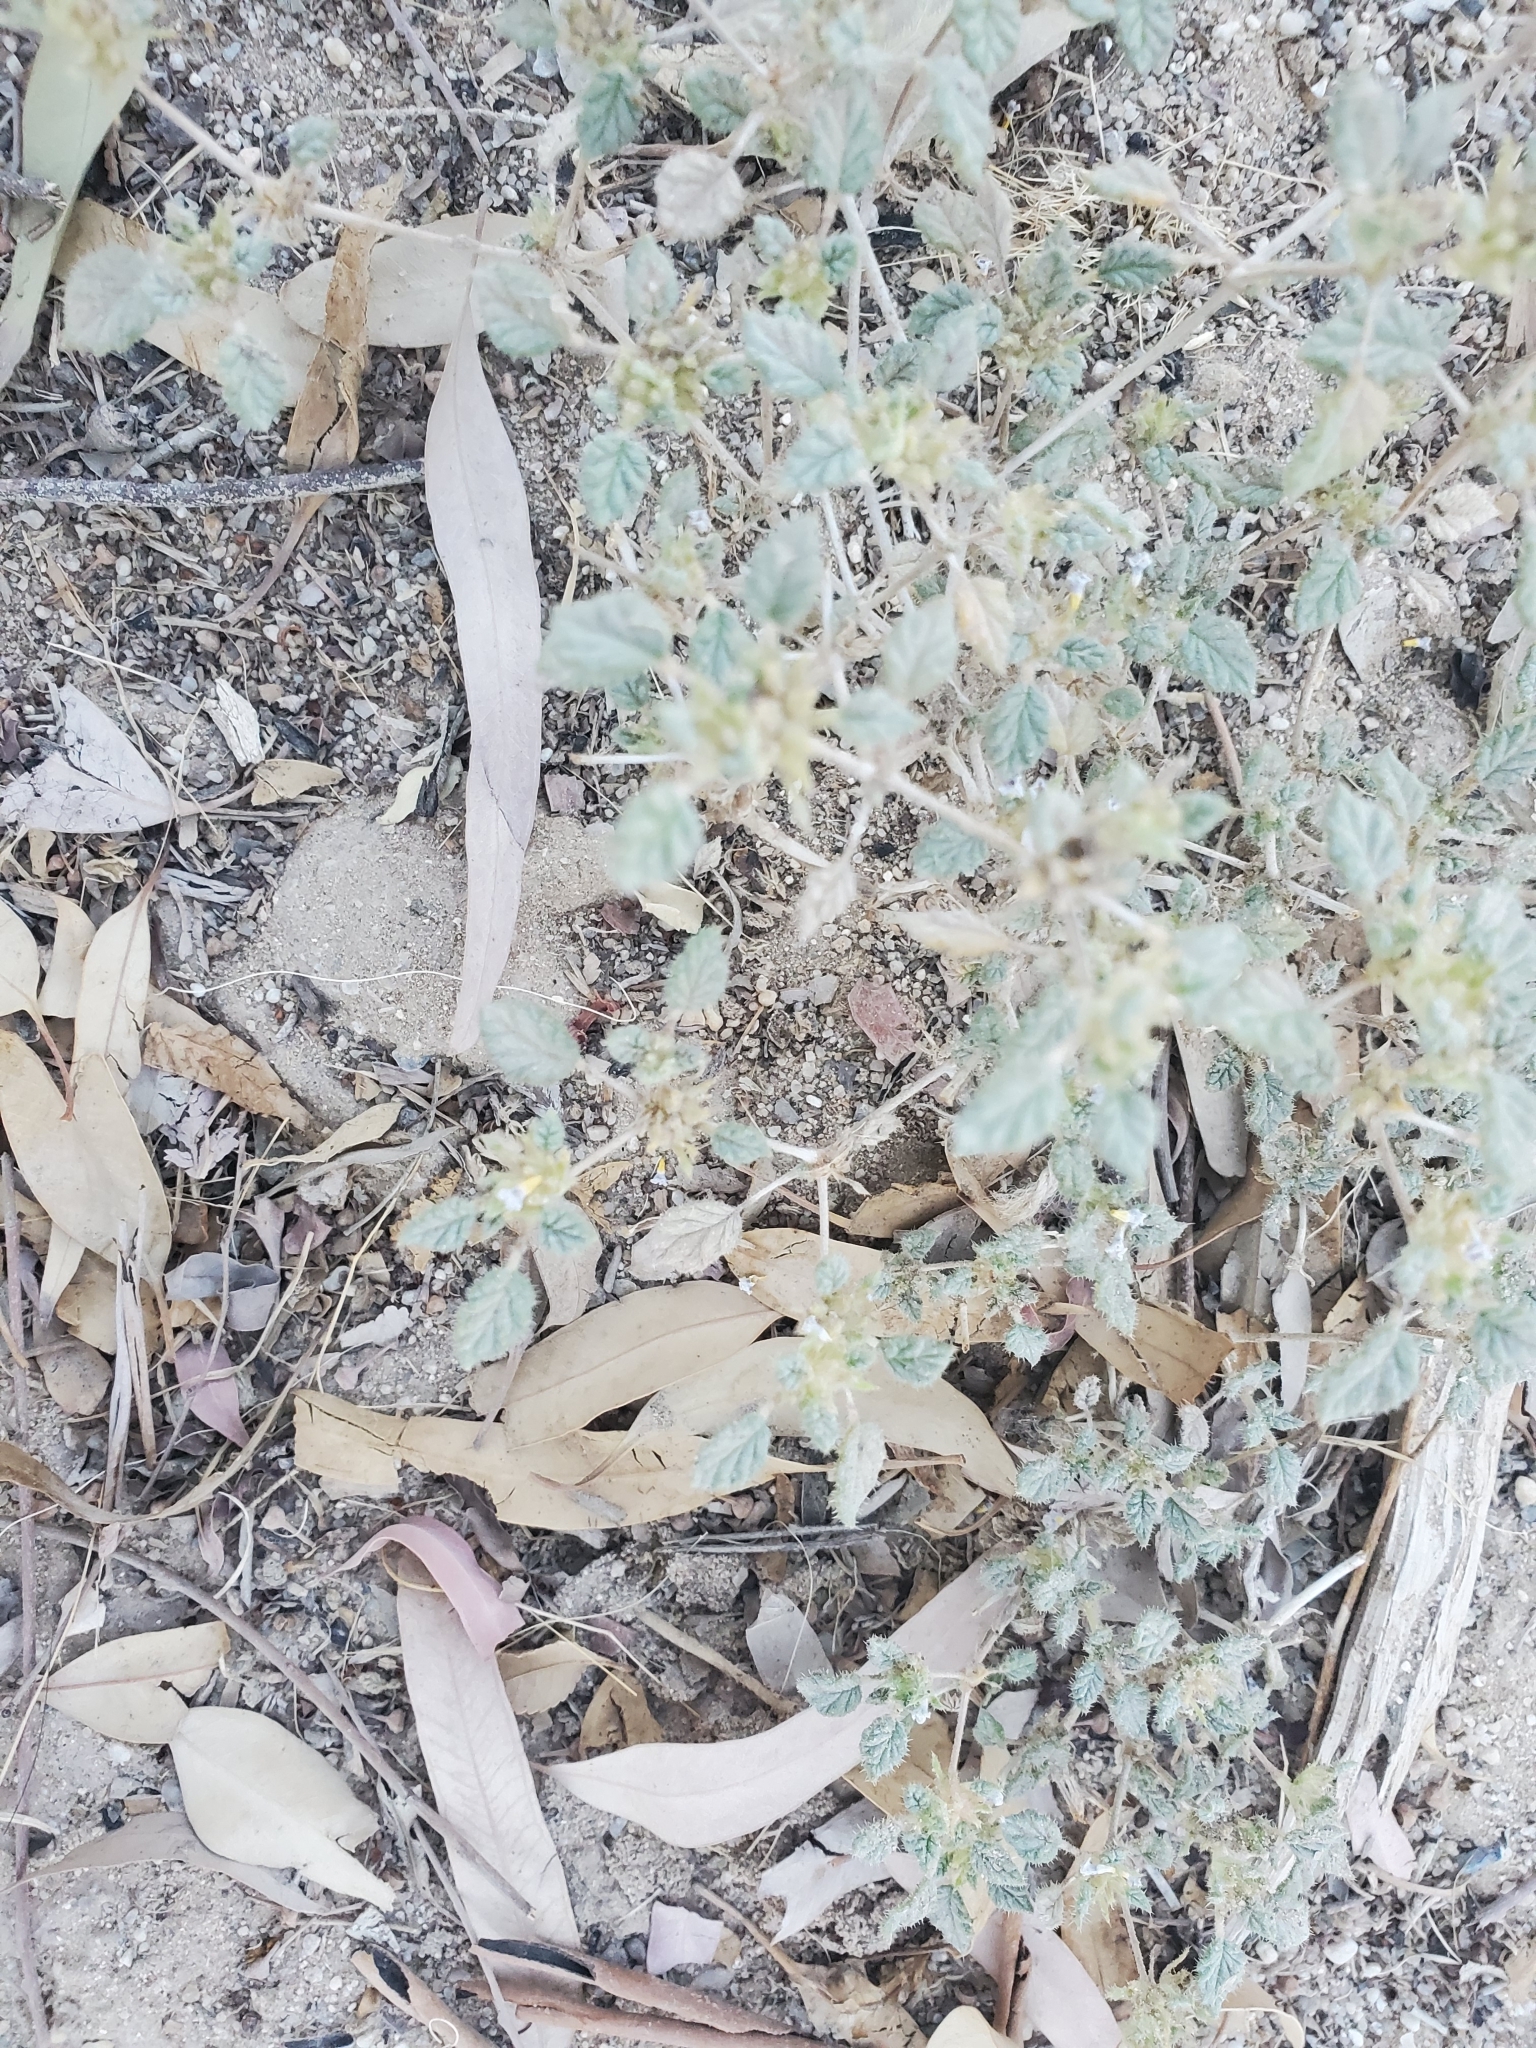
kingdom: Plantae
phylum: Tracheophyta
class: Magnoliopsida
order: Boraginales
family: Ehretiaceae
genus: Tiquilia
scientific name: Tiquilia palmeri
